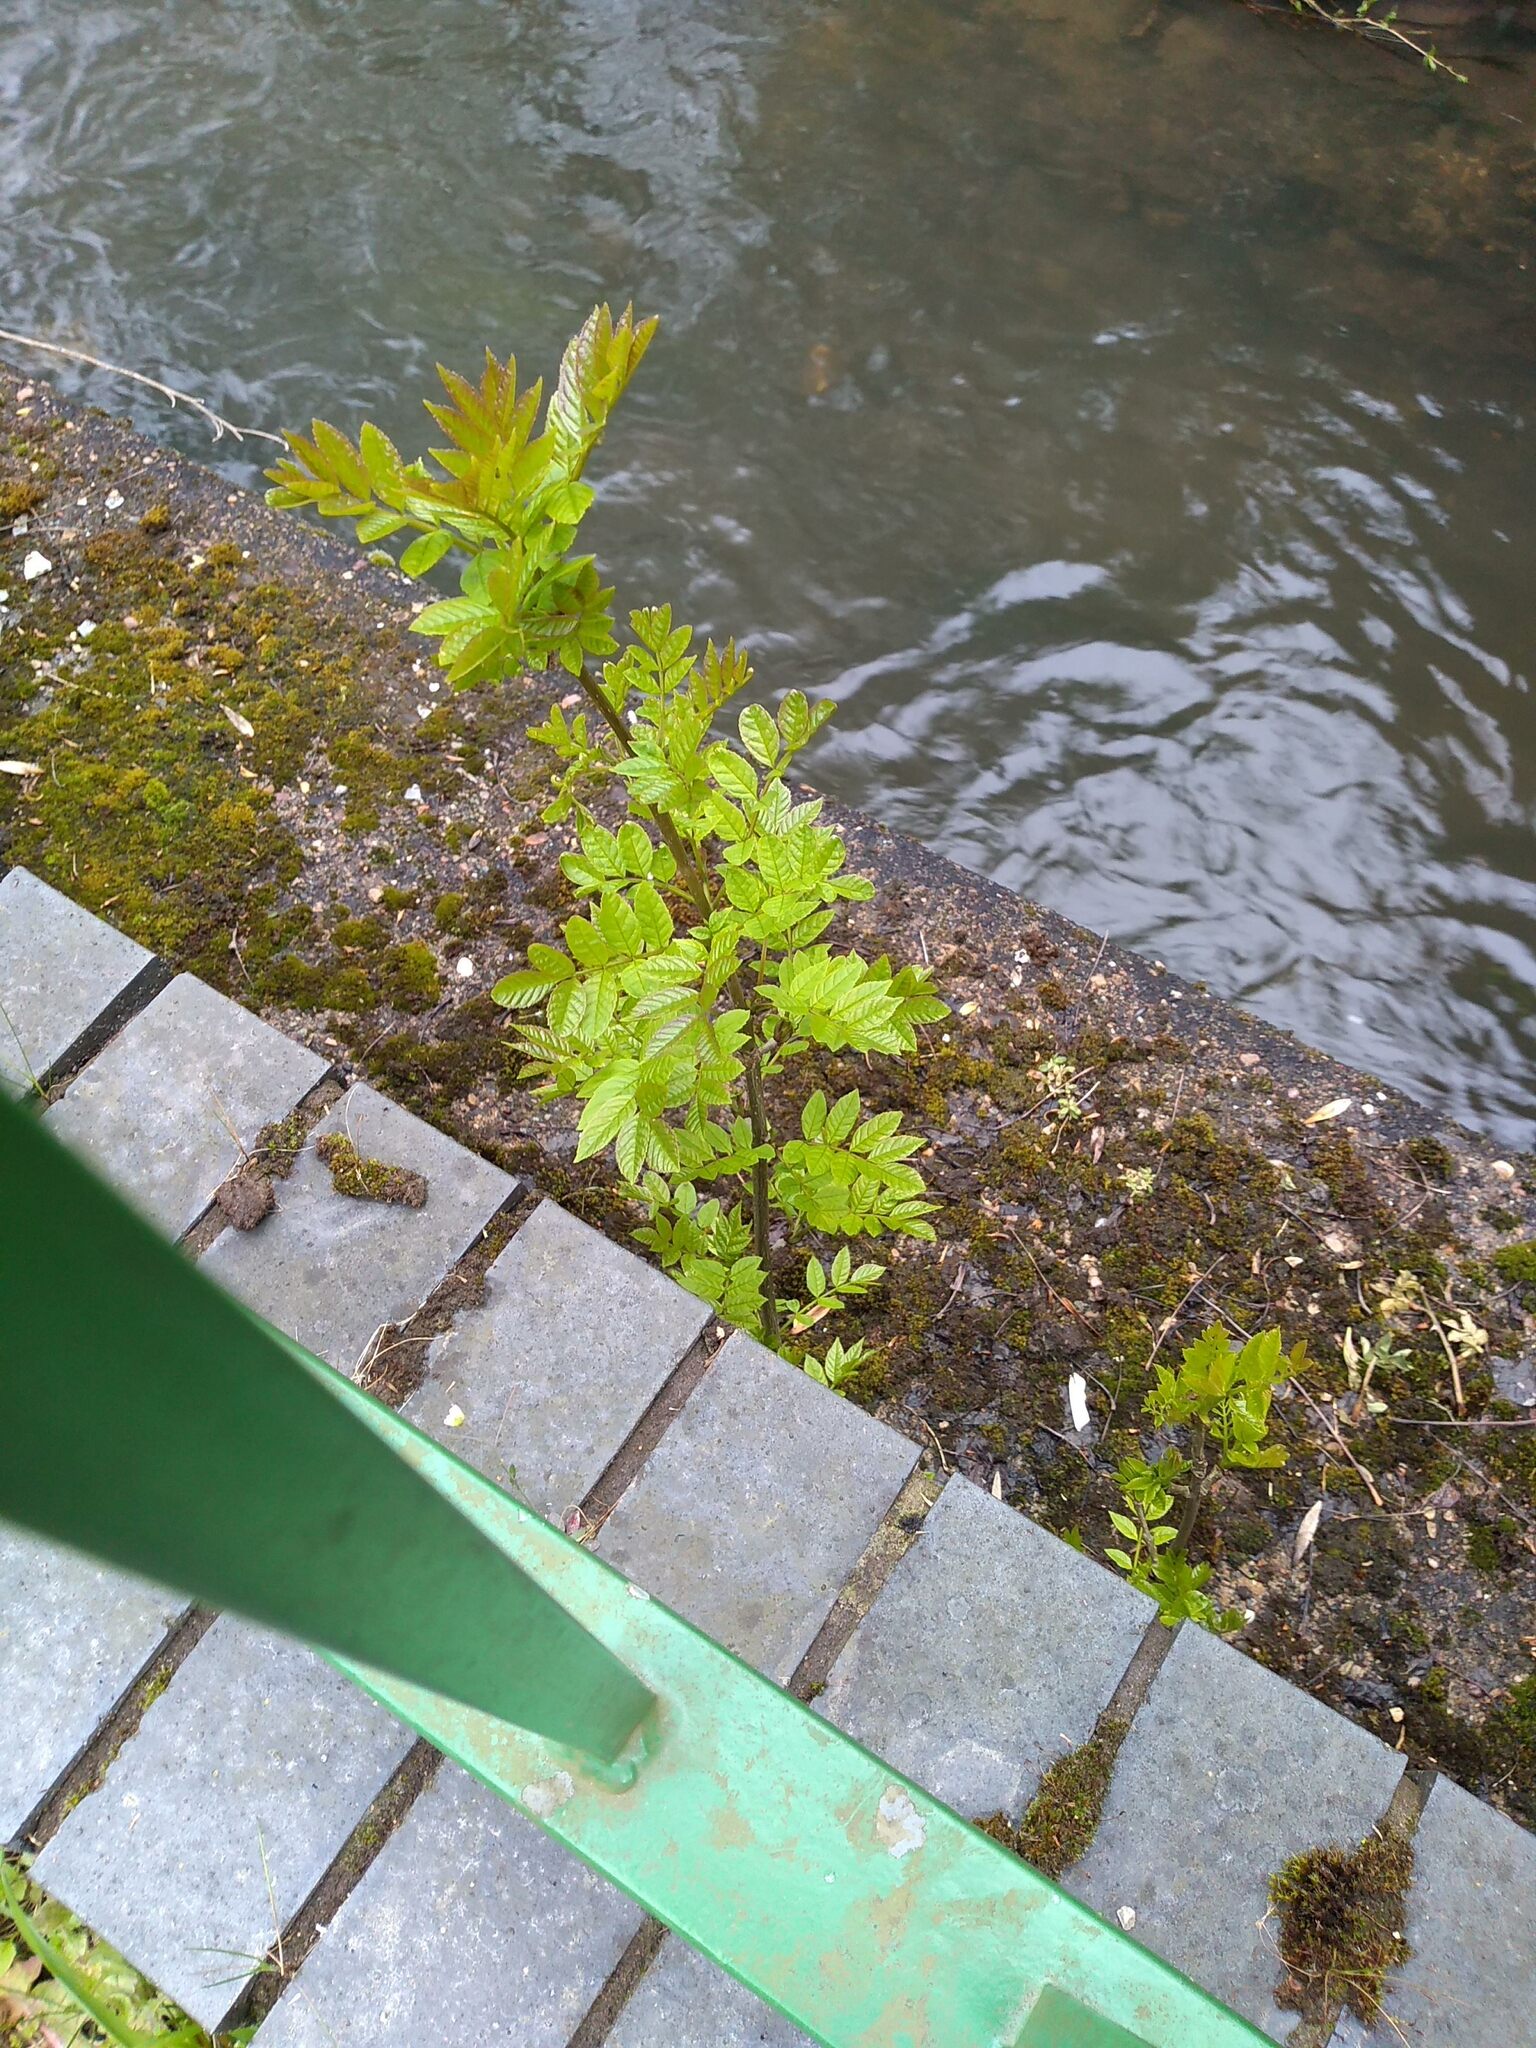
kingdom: Plantae
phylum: Tracheophyta
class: Magnoliopsida
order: Lamiales
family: Oleaceae
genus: Fraxinus
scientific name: Fraxinus excelsior
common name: European ash
